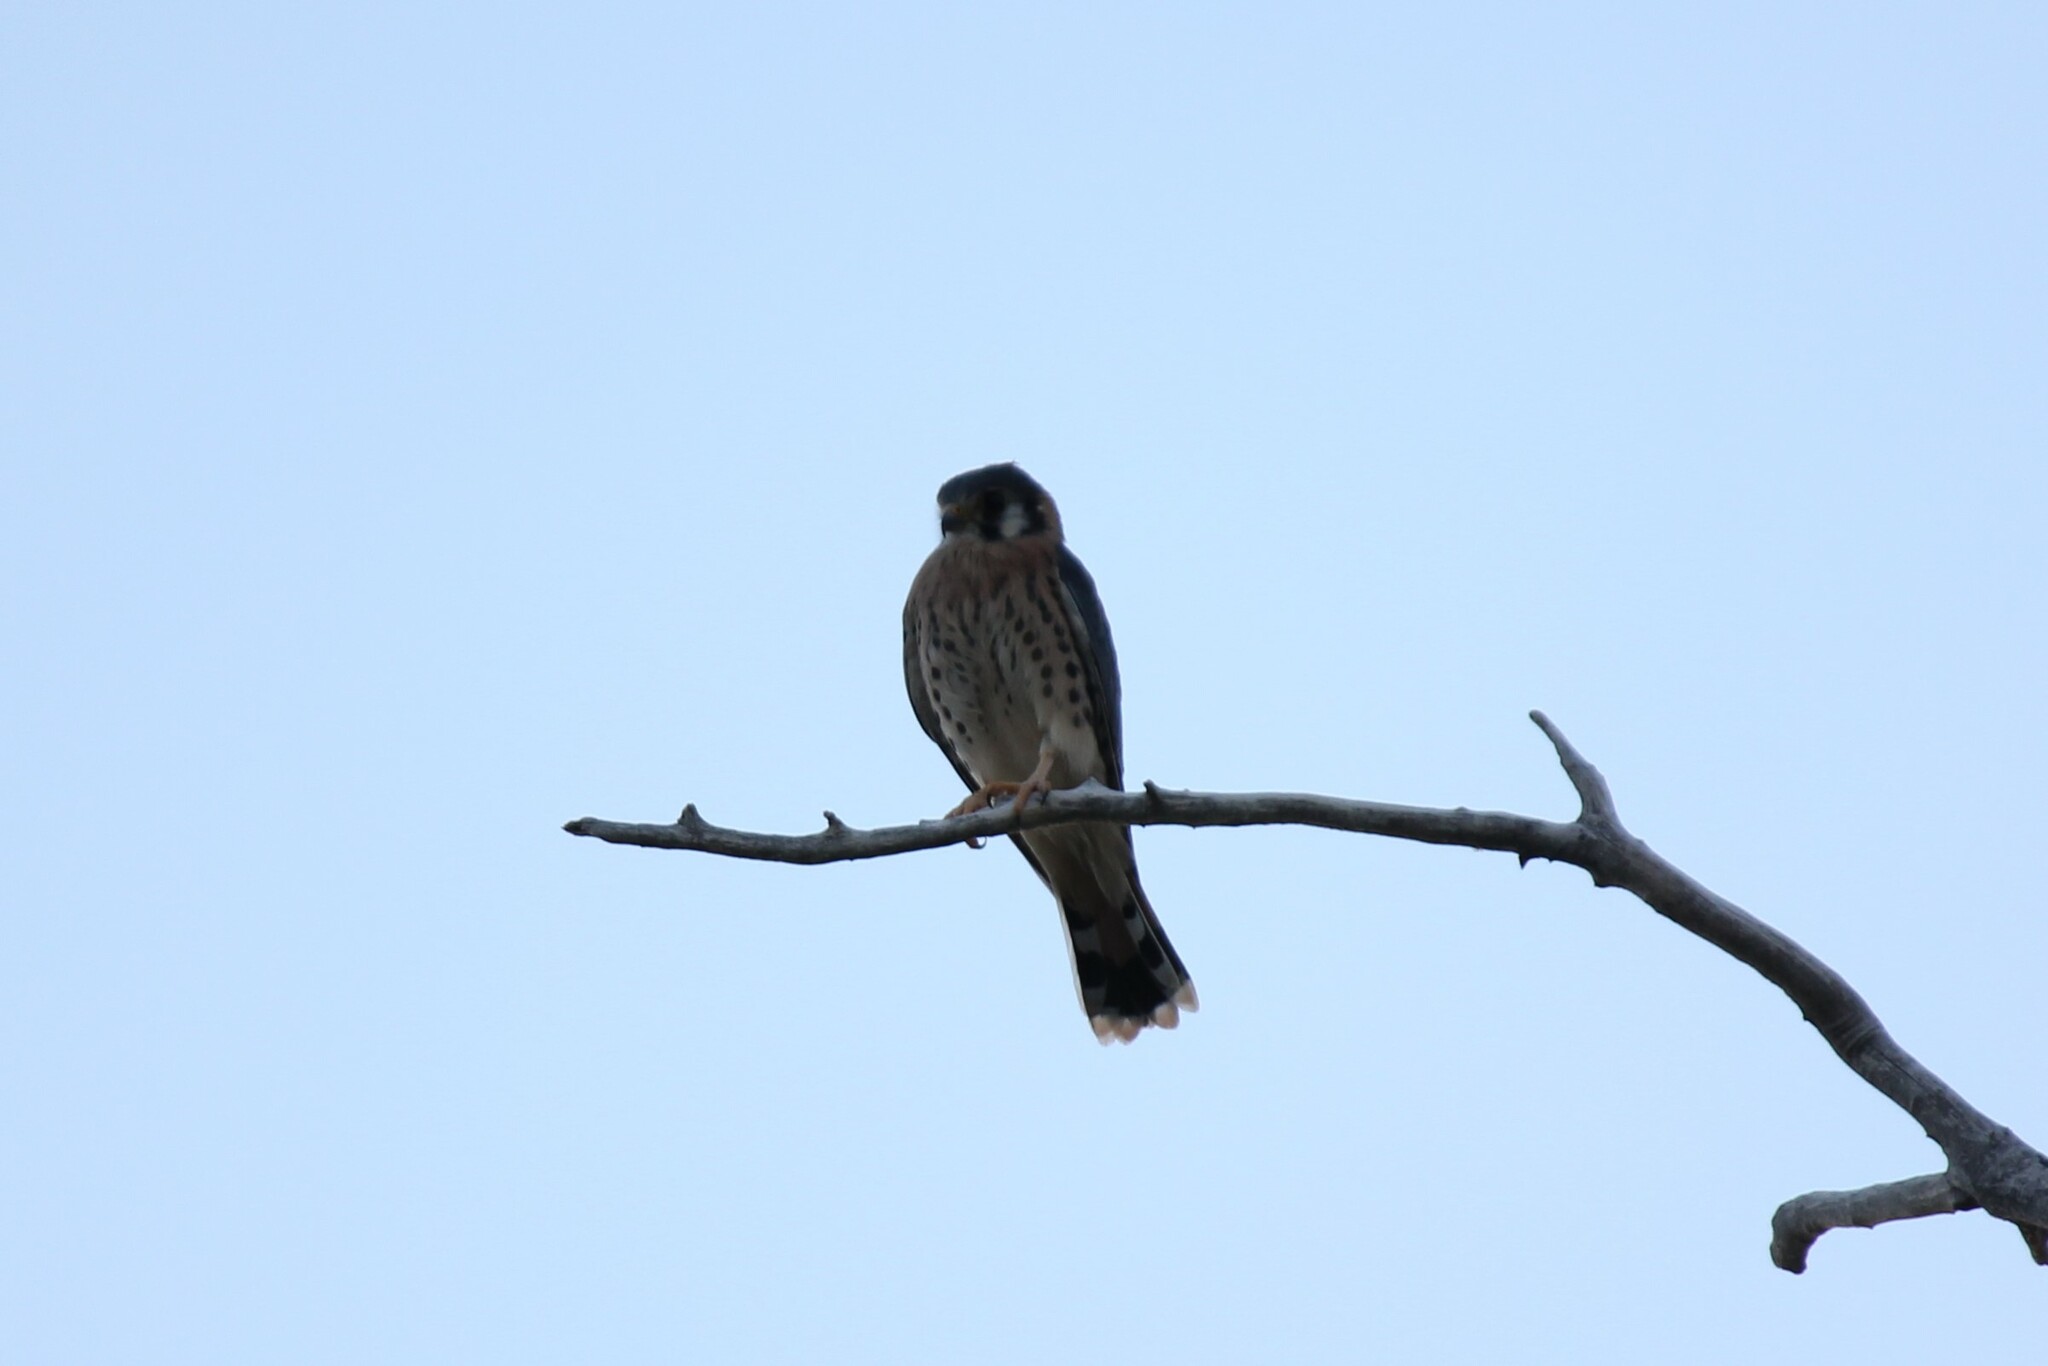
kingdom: Animalia
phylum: Chordata
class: Aves
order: Falconiformes
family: Falconidae
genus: Falco
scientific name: Falco sparverius
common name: American kestrel
